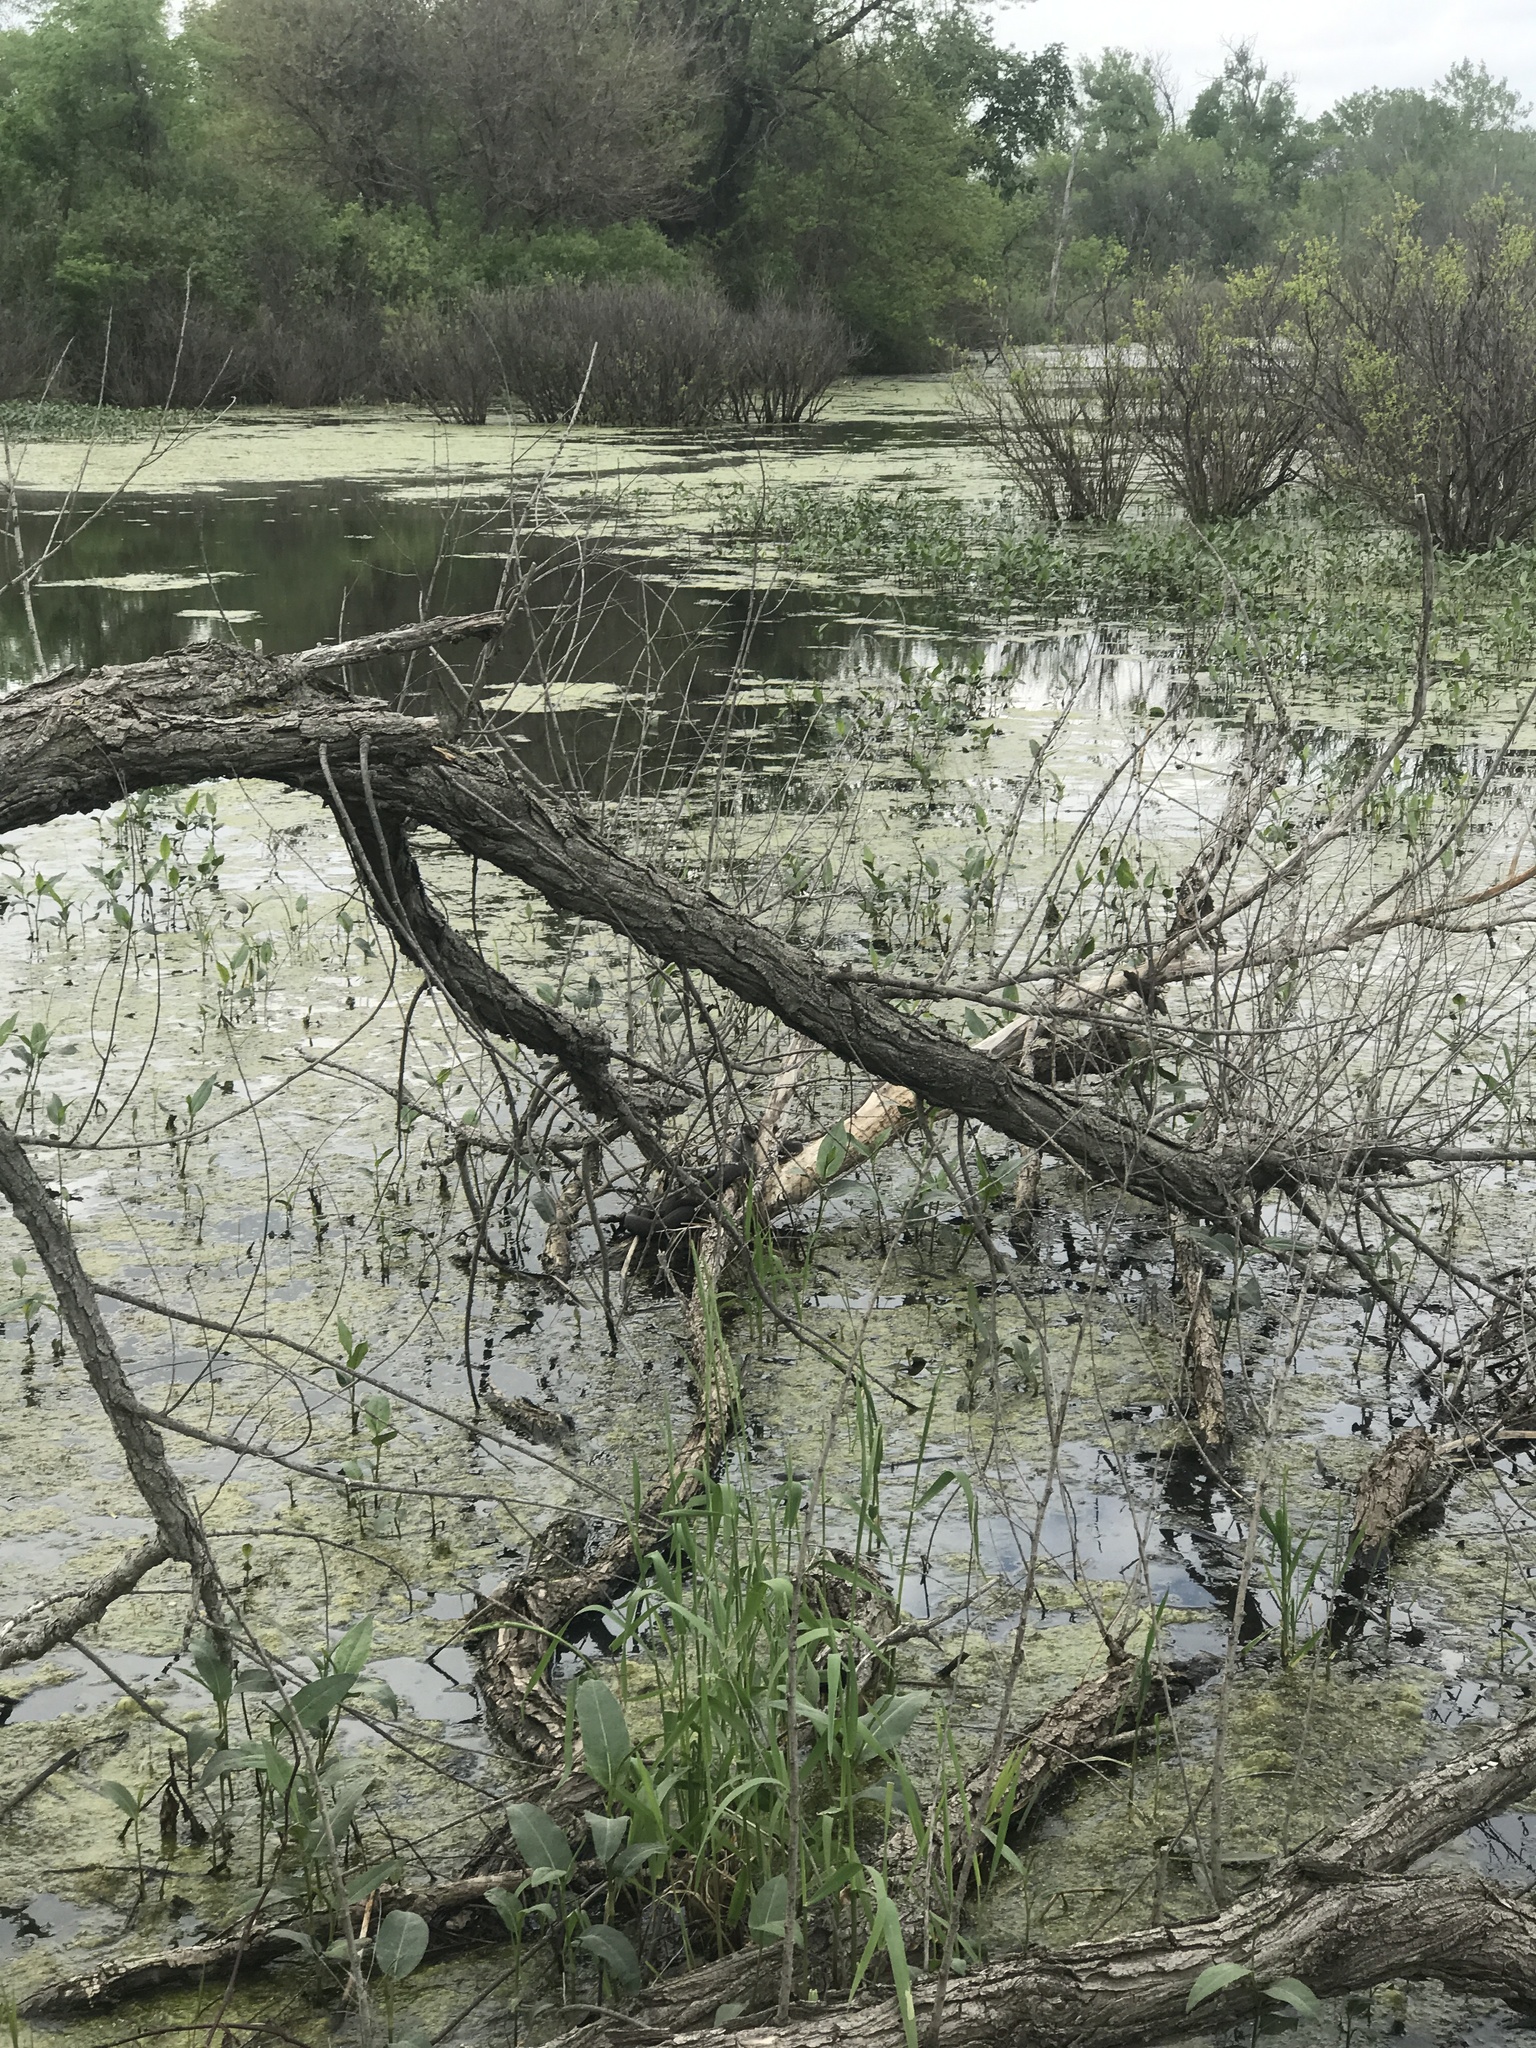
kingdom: Animalia
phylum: Chordata
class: Squamata
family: Colubridae
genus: Nerodia
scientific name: Nerodia sipedon
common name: Northern water snake
